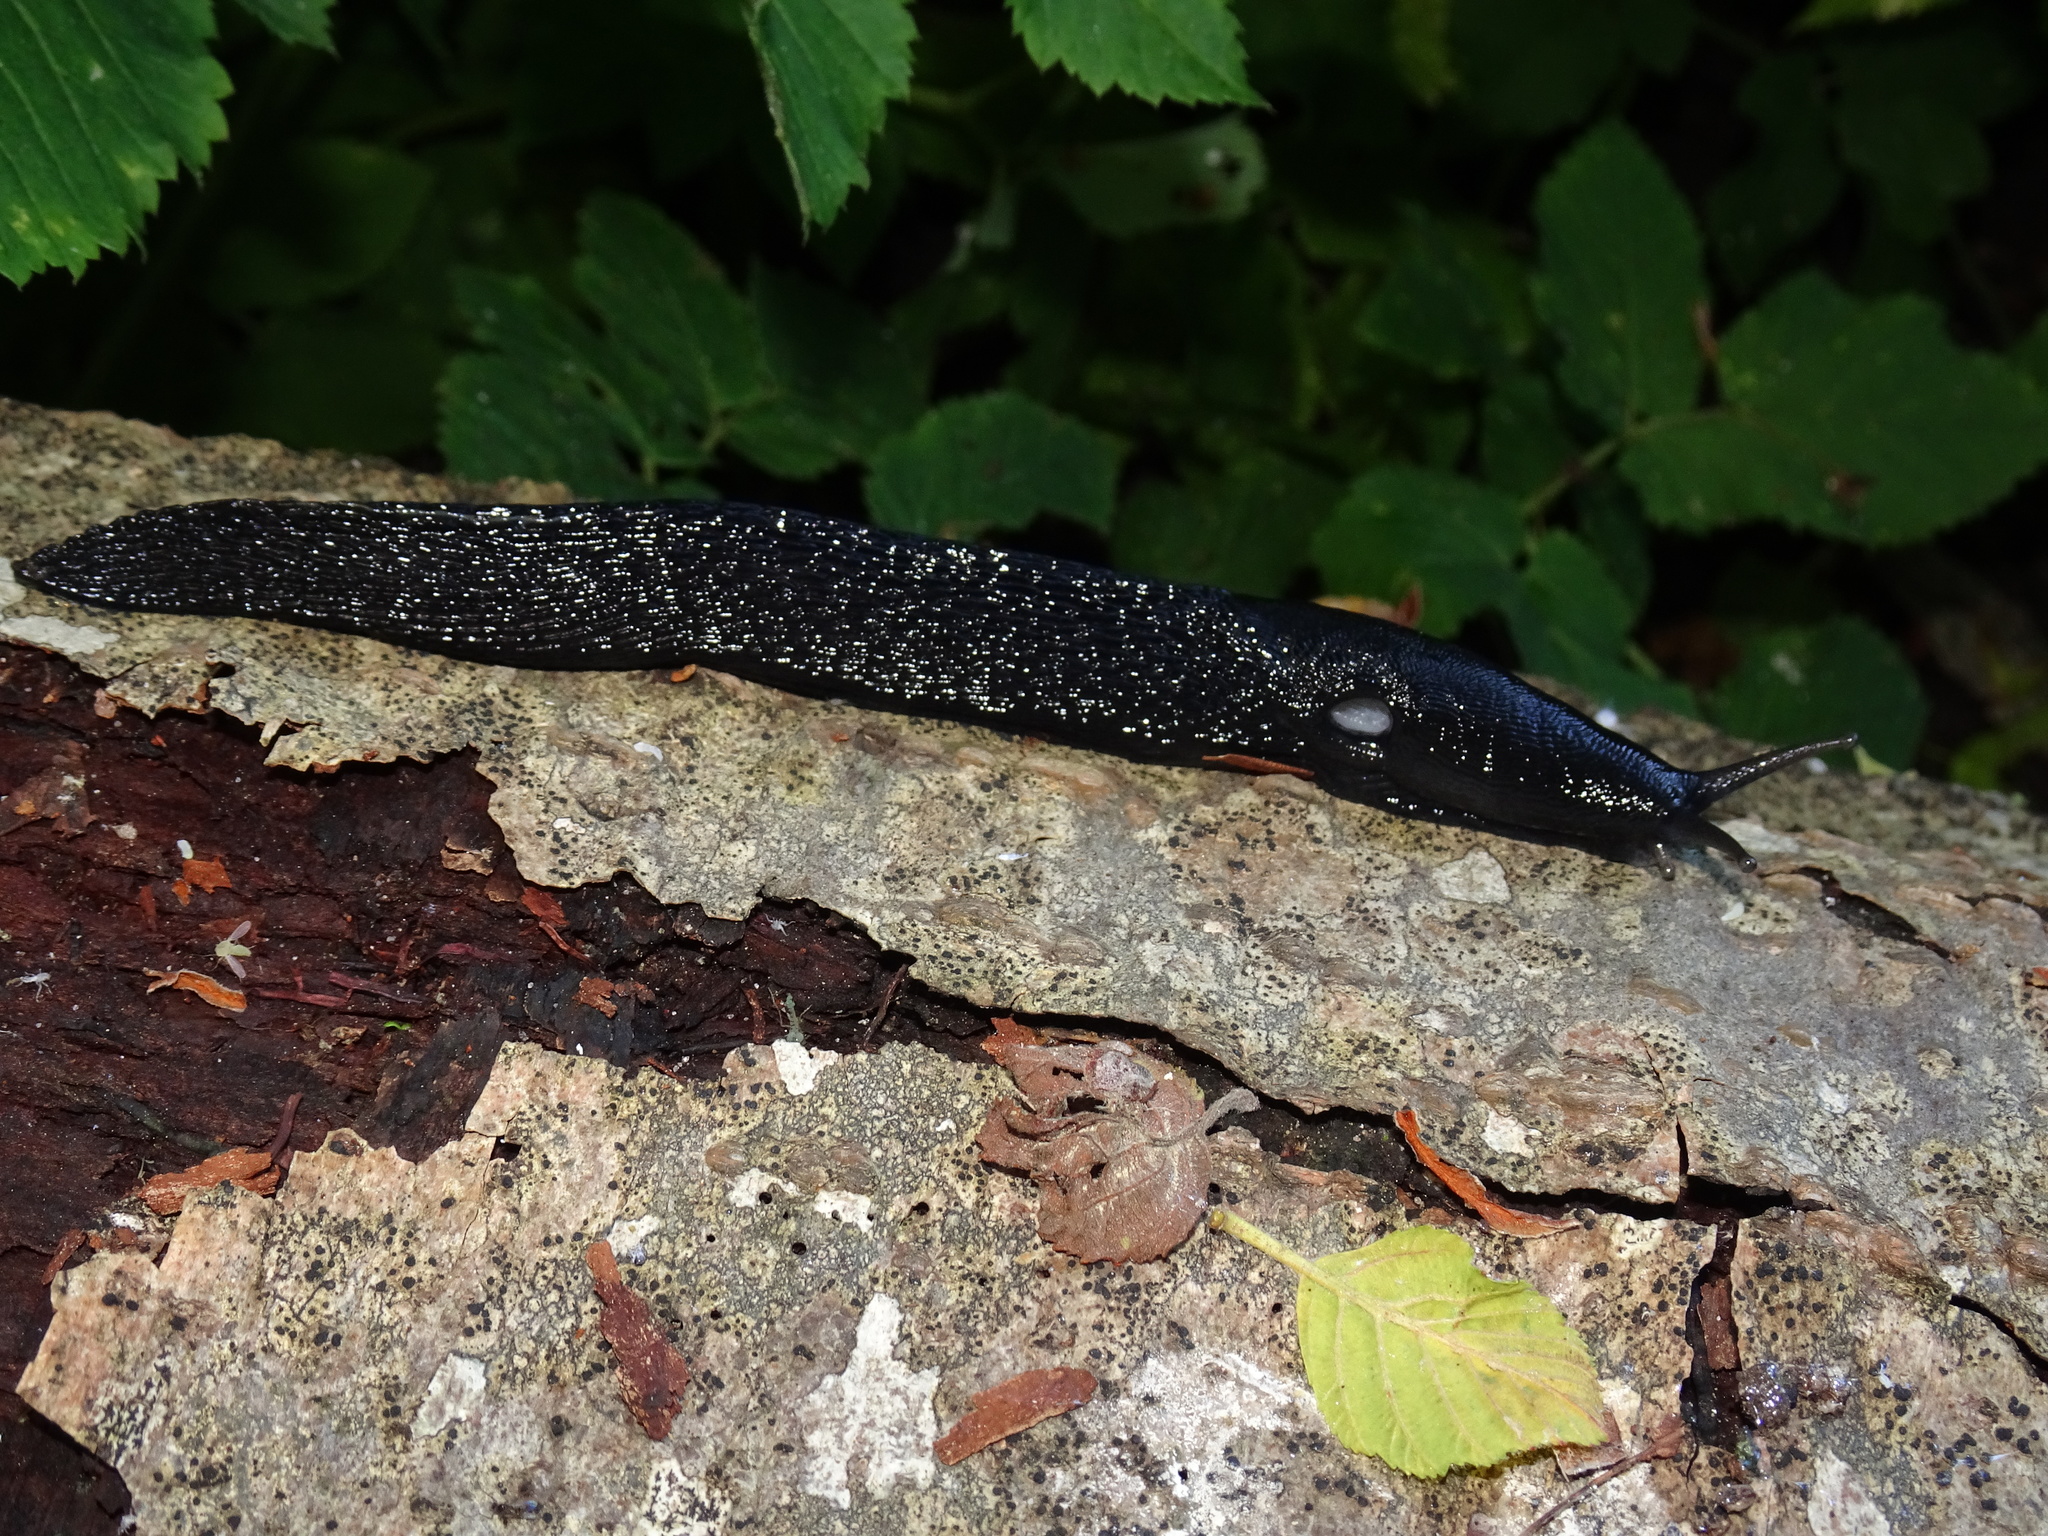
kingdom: Animalia
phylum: Mollusca
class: Gastropoda
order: Stylommatophora
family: Limacidae
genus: Limax
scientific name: Limax cinereoniger
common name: Ash-black slug
